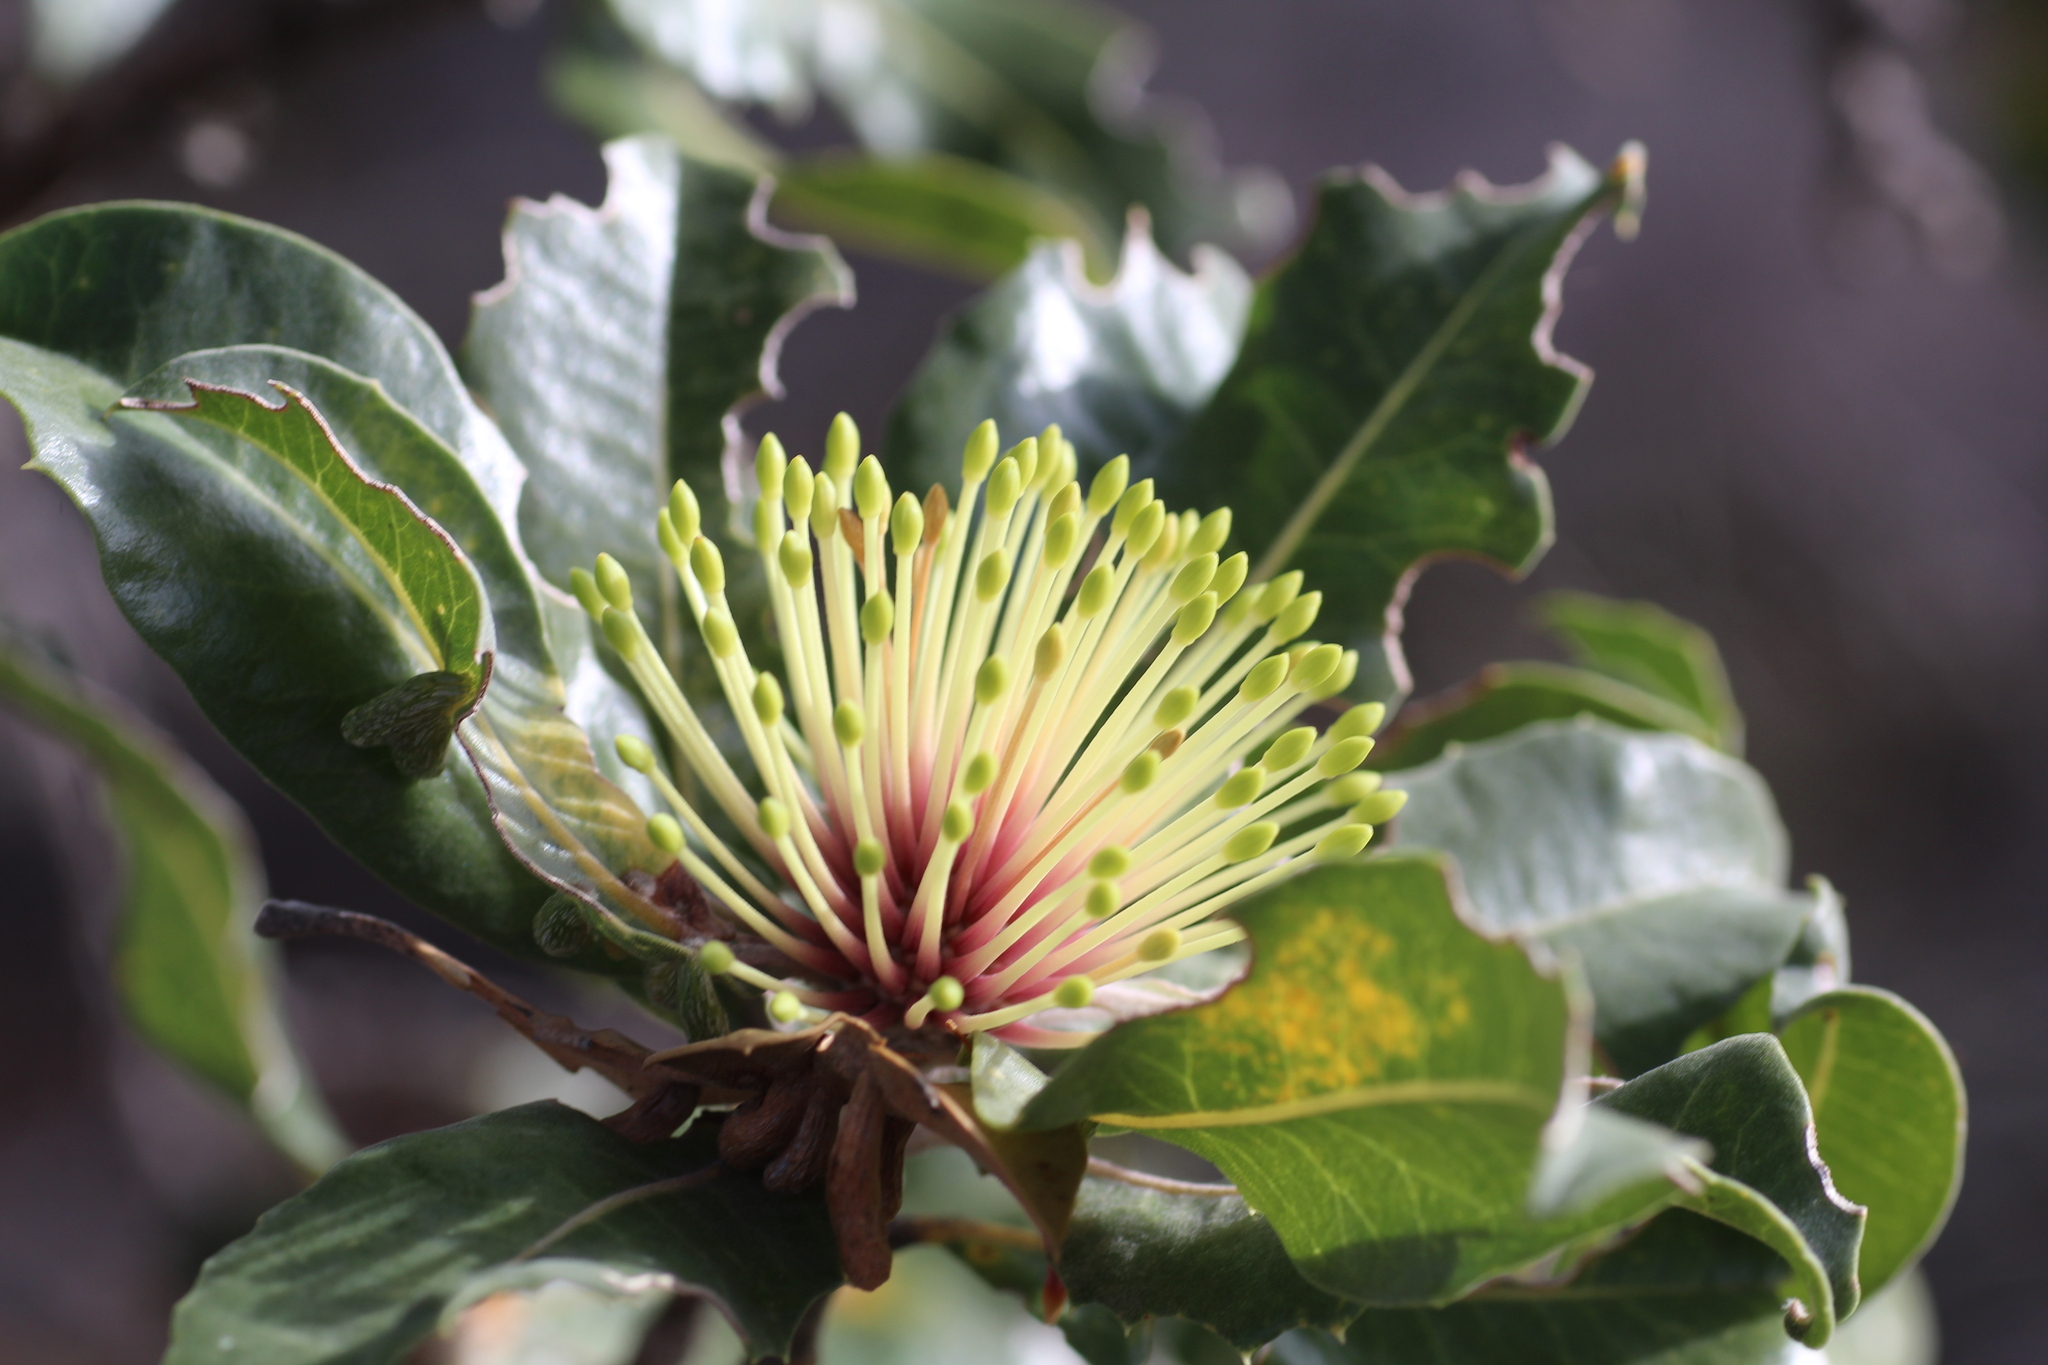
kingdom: Plantae
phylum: Tracheophyta
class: Magnoliopsida
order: Proteales
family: Proteaceae
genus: Banksia
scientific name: Banksia ilicifolia
